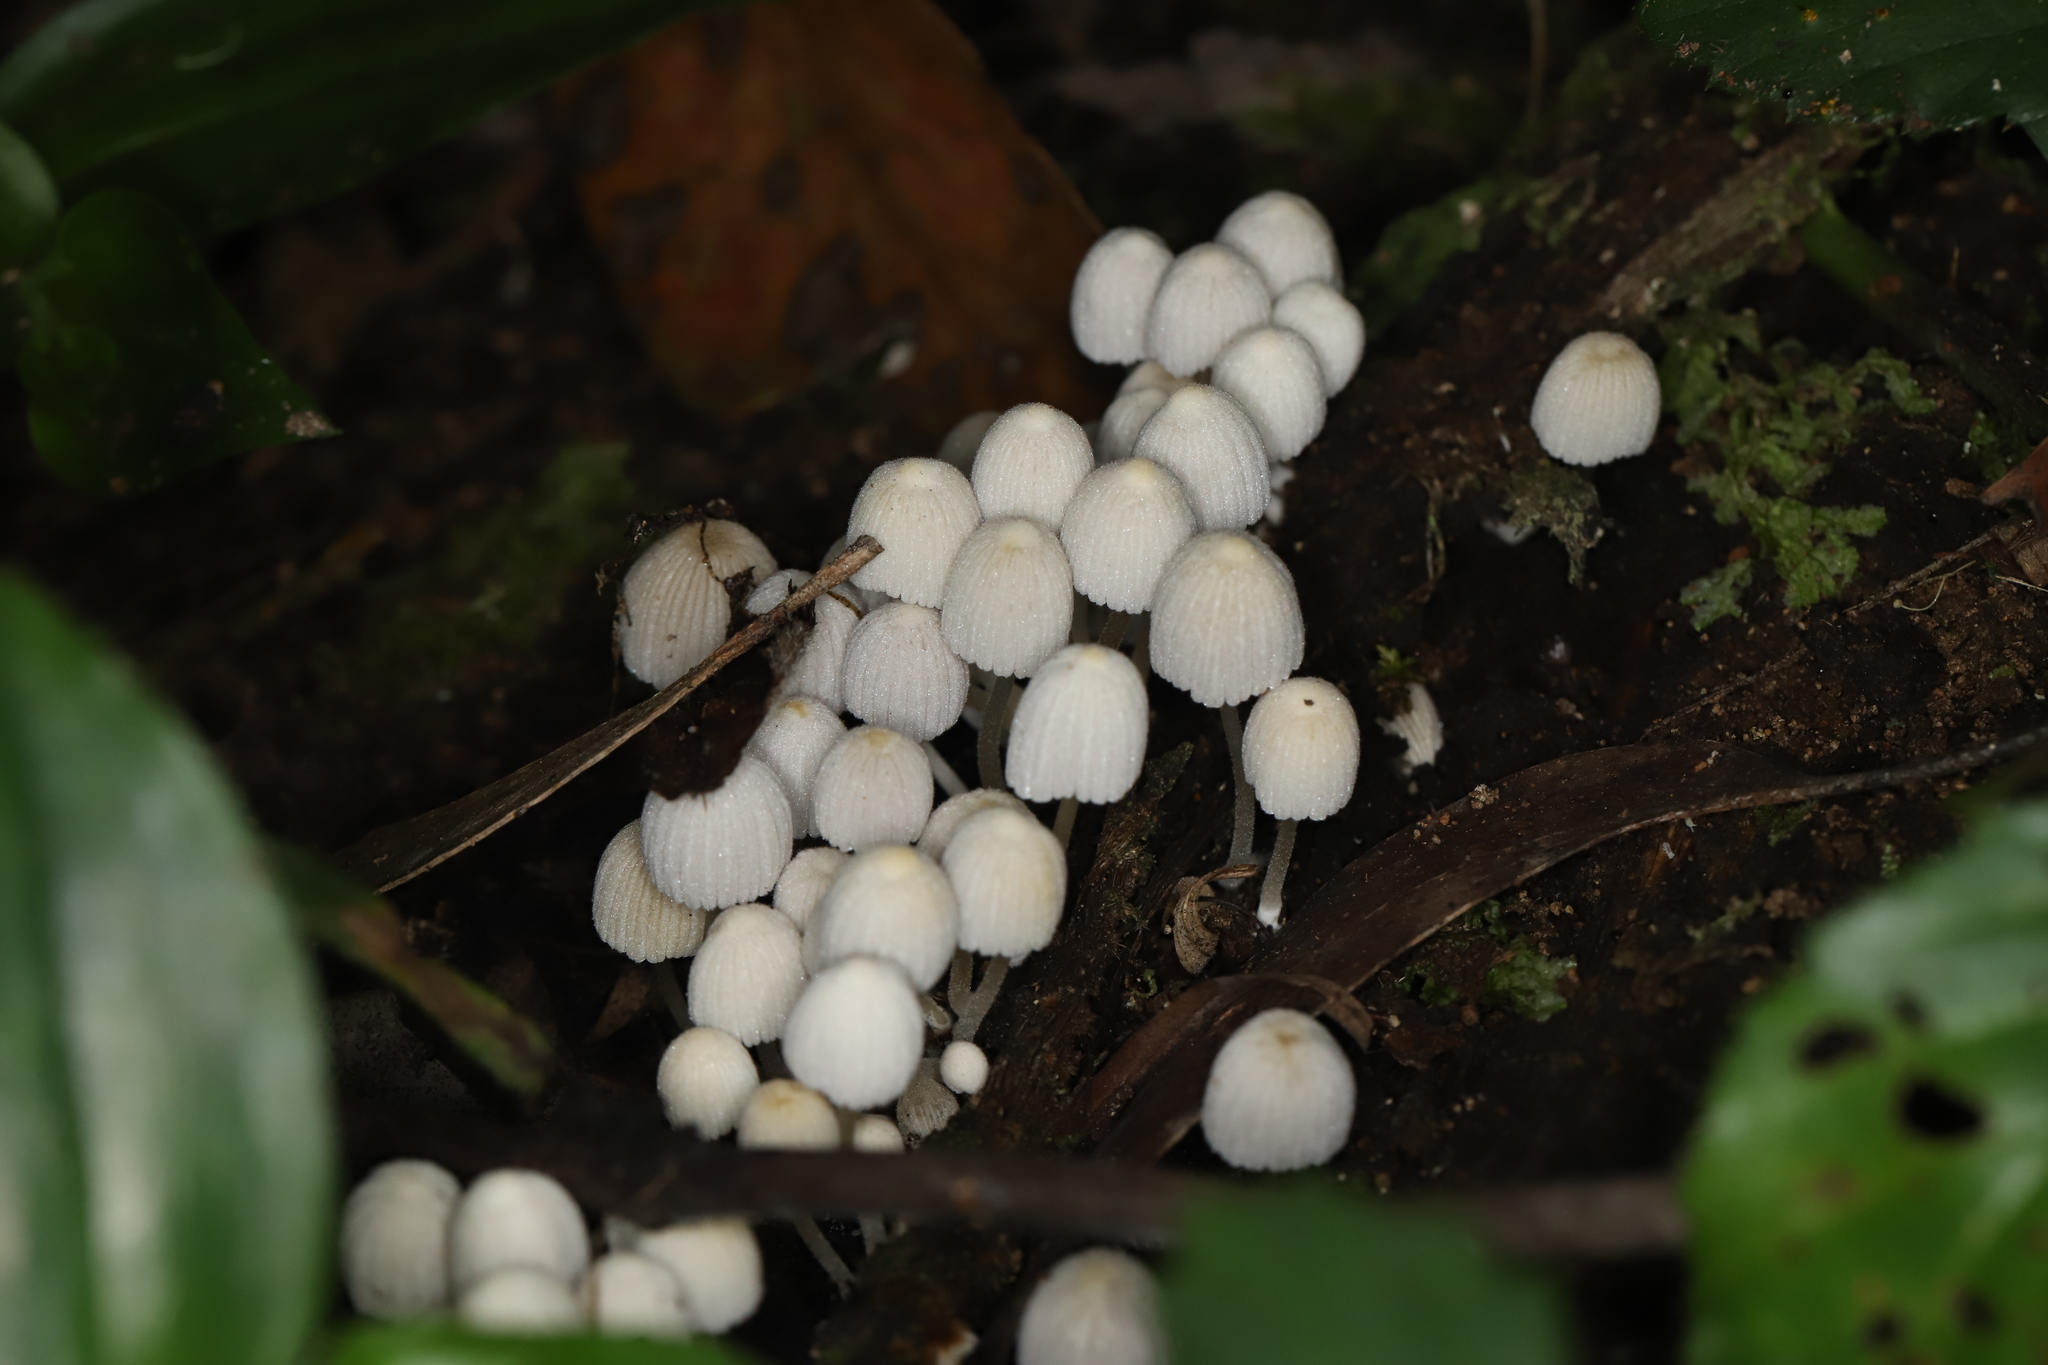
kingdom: Fungi
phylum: Basidiomycota
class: Agaricomycetes
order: Agaricales
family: Psathyrellaceae
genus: Coprinellus
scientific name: Coprinellus disseminatus
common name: Fairies' bonnets
